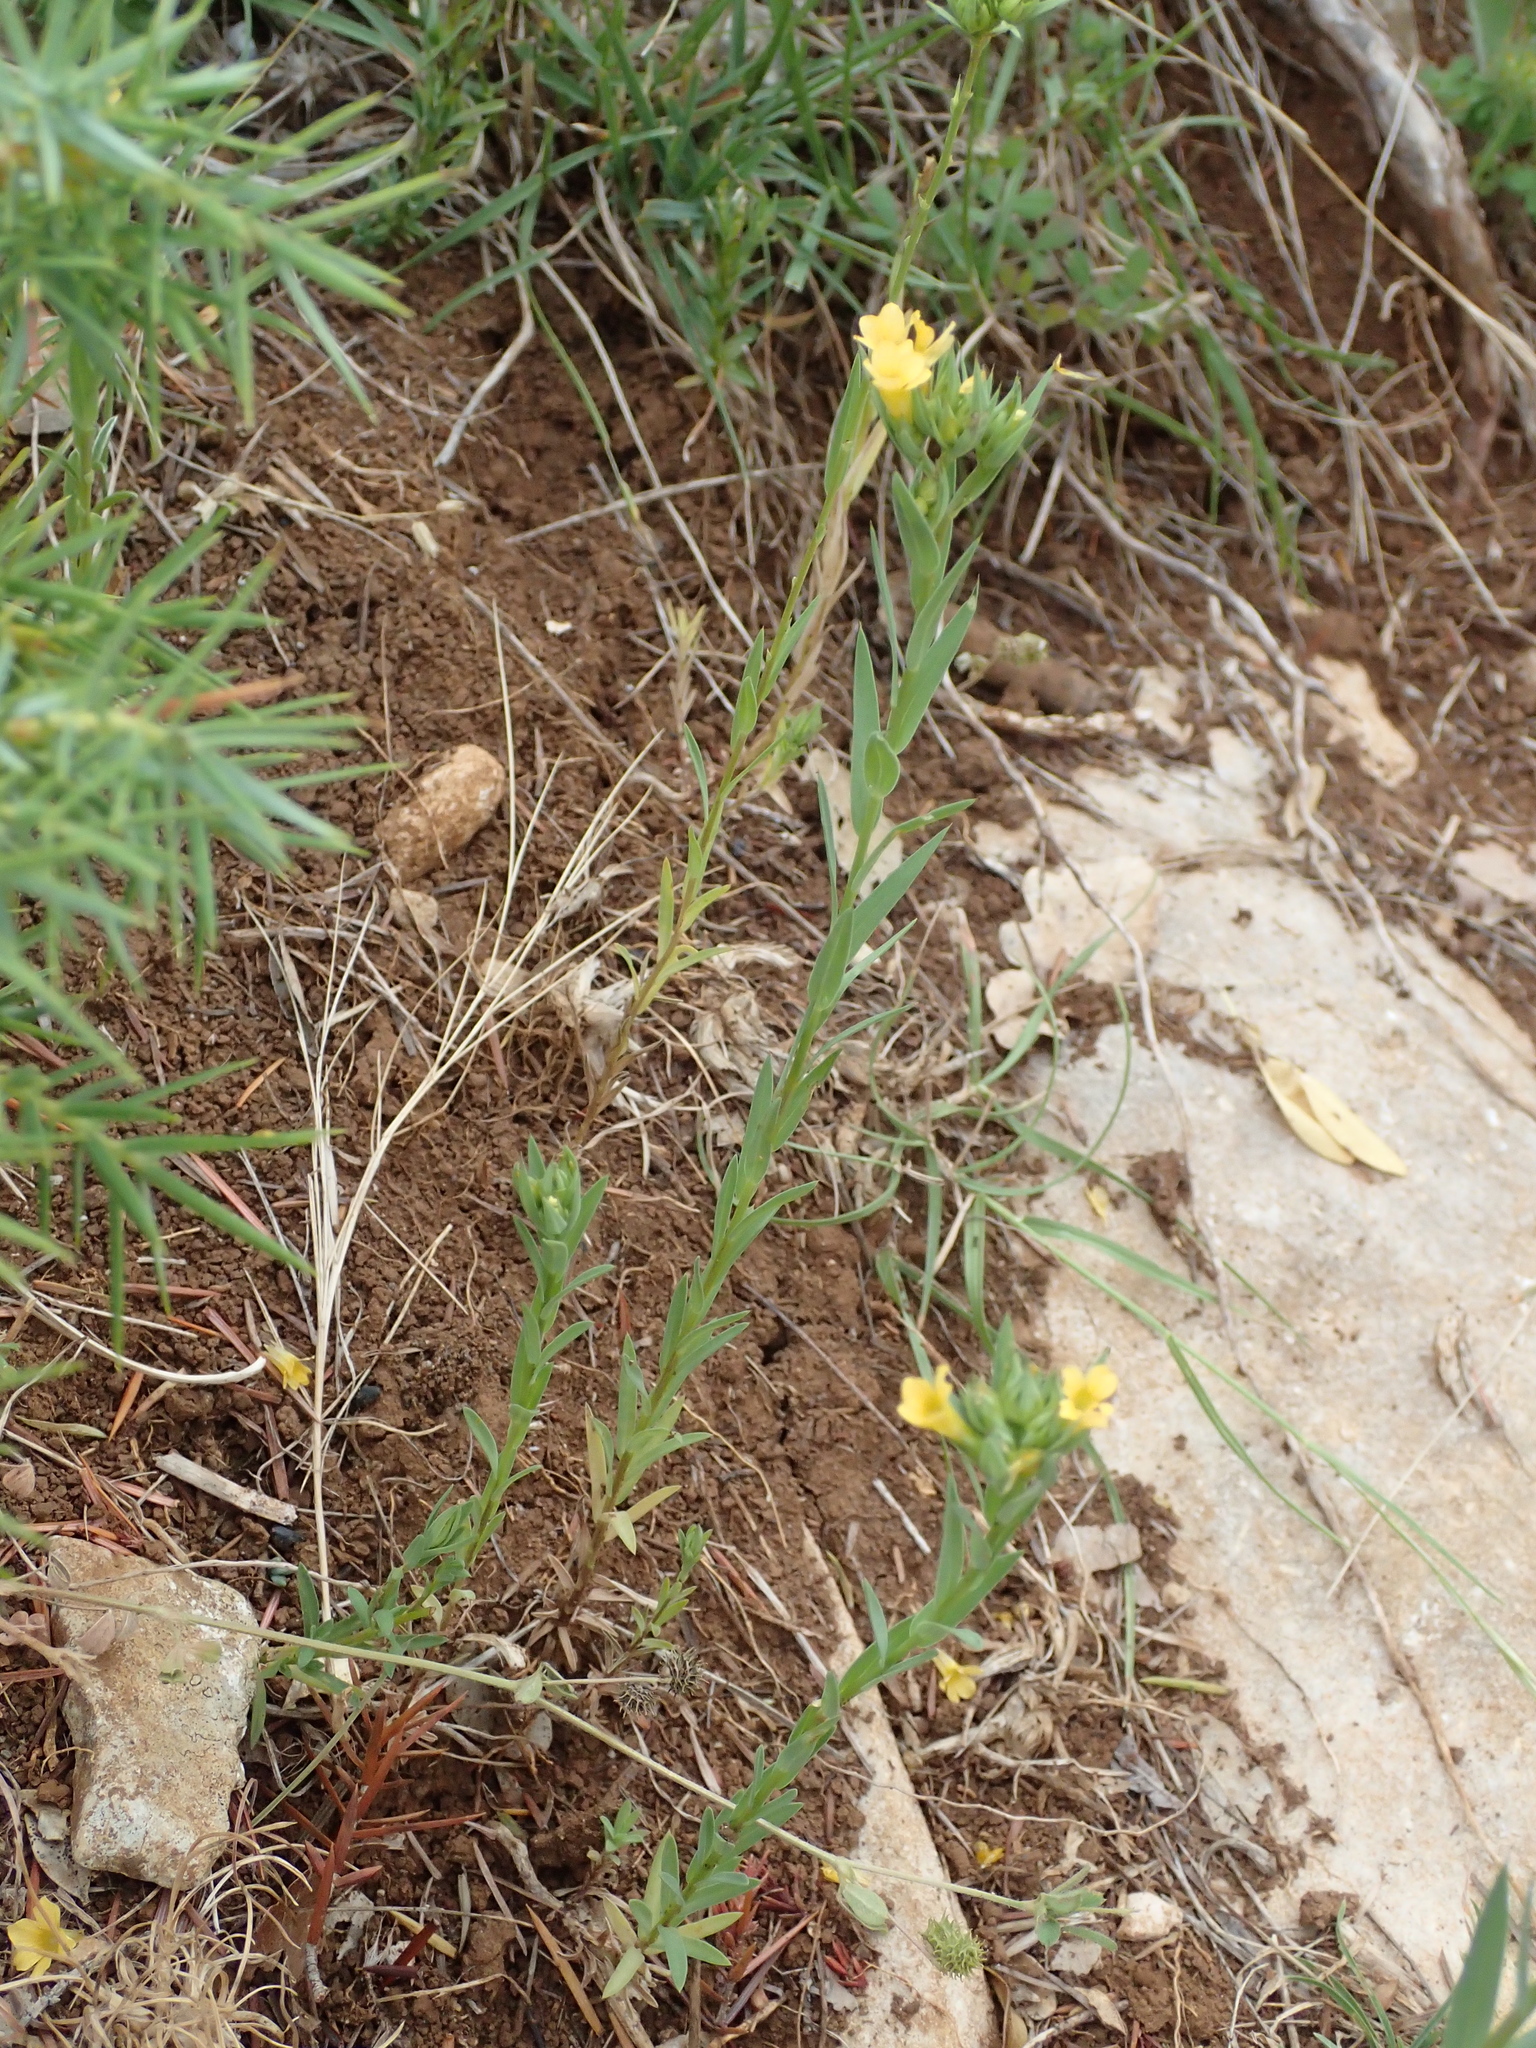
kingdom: Plantae
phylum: Tracheophyta
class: Magnoliopsida
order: Malpighiales
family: Linaceae
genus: Linum
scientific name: Linum strictum
